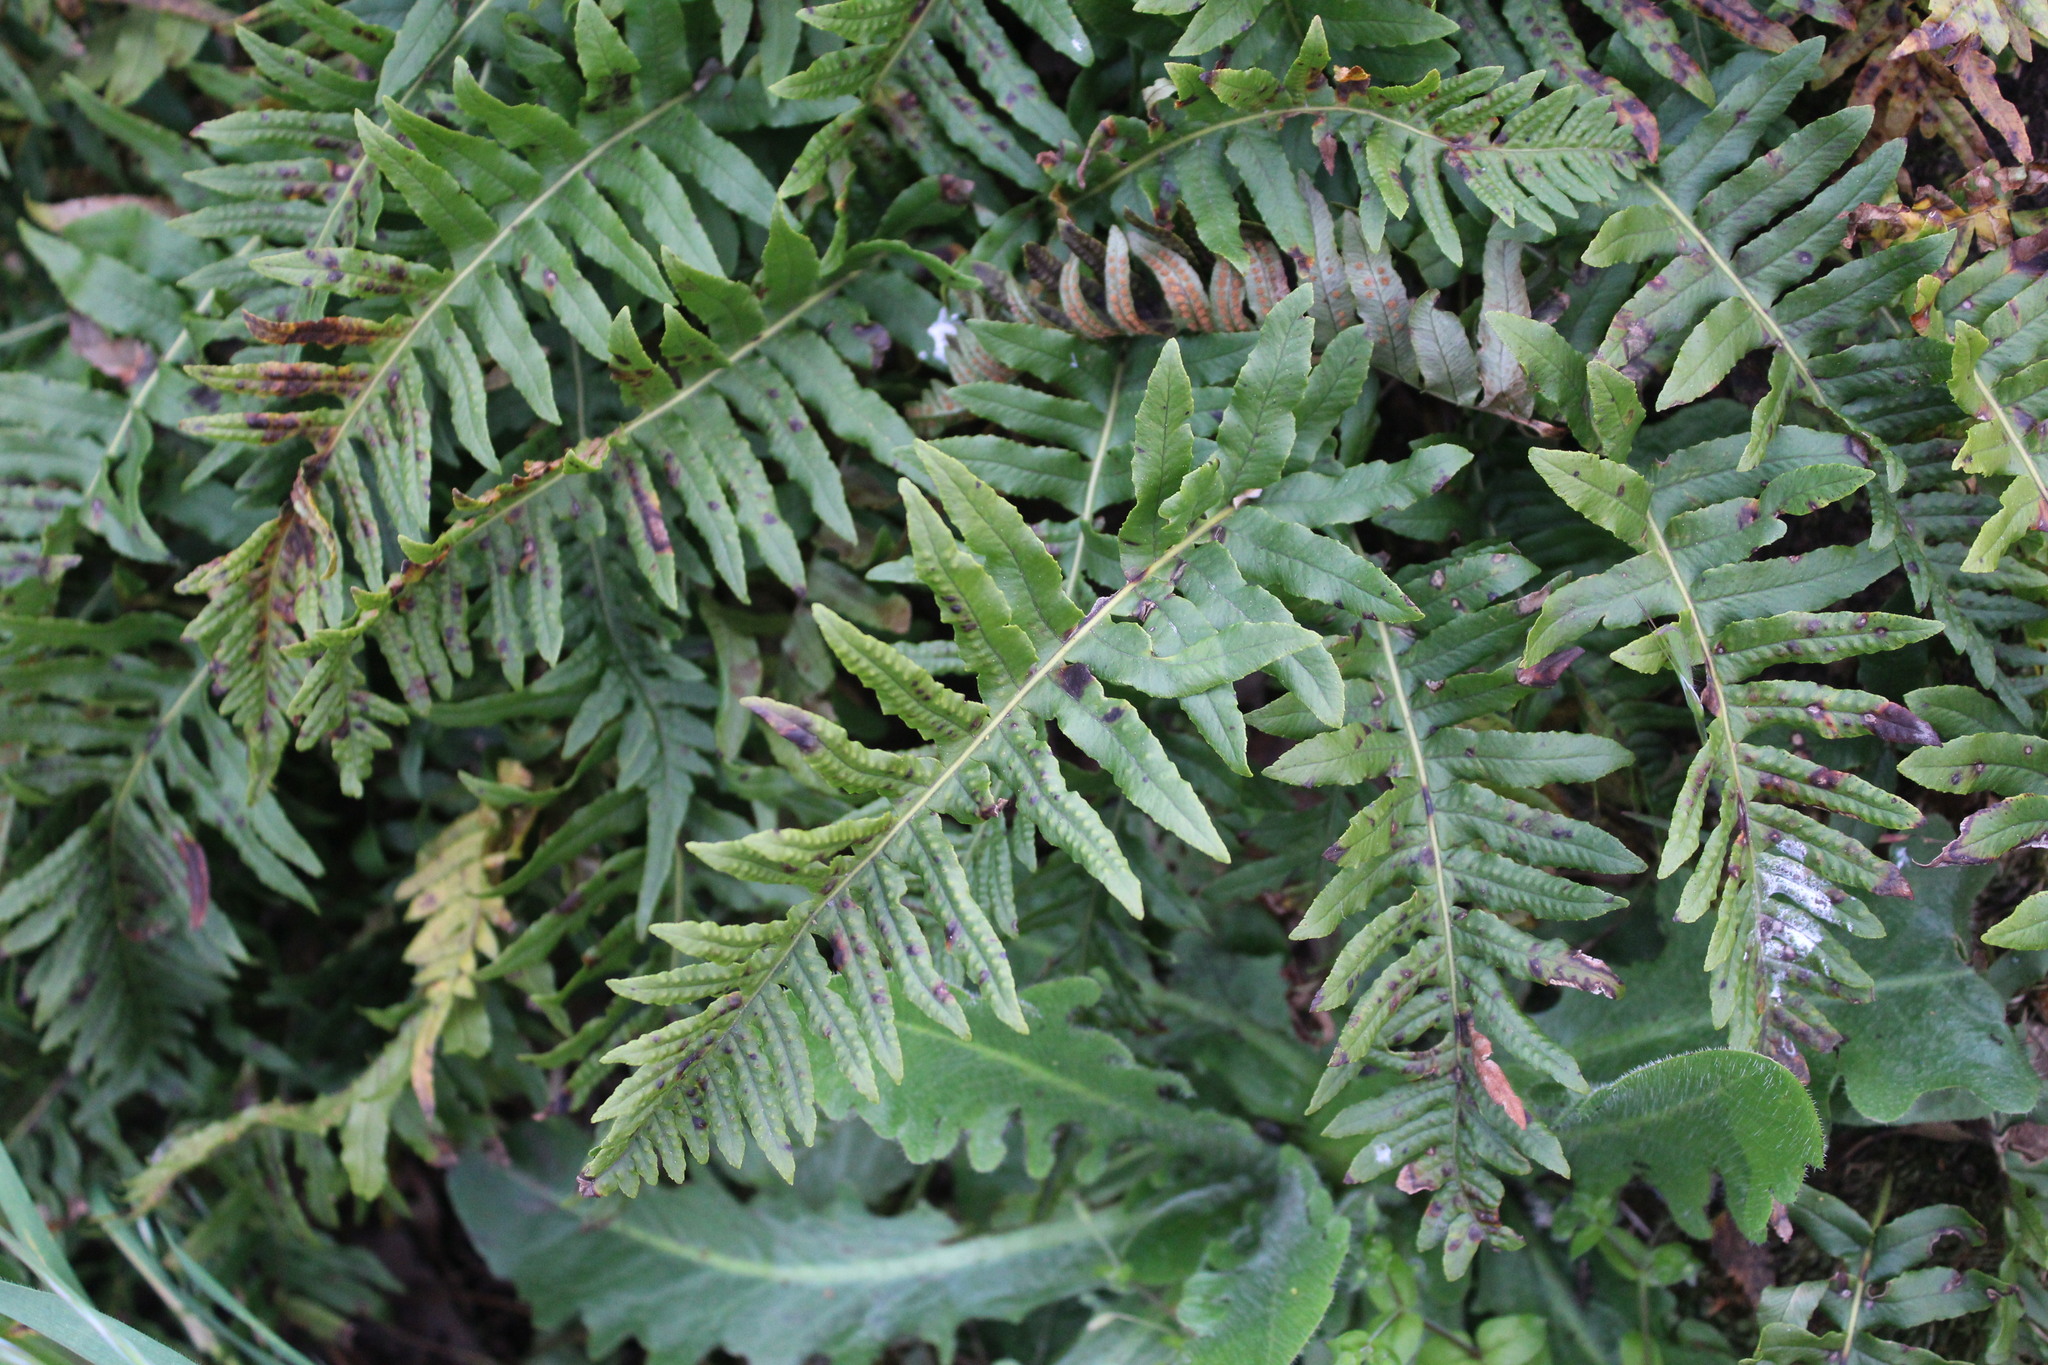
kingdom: Plantae
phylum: Tracheophyta
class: Polypodiopsida
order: Polypodiales
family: Polypodiaceae
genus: Polypodium
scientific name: Polypodium glycyrrhiza
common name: Licorice fern
